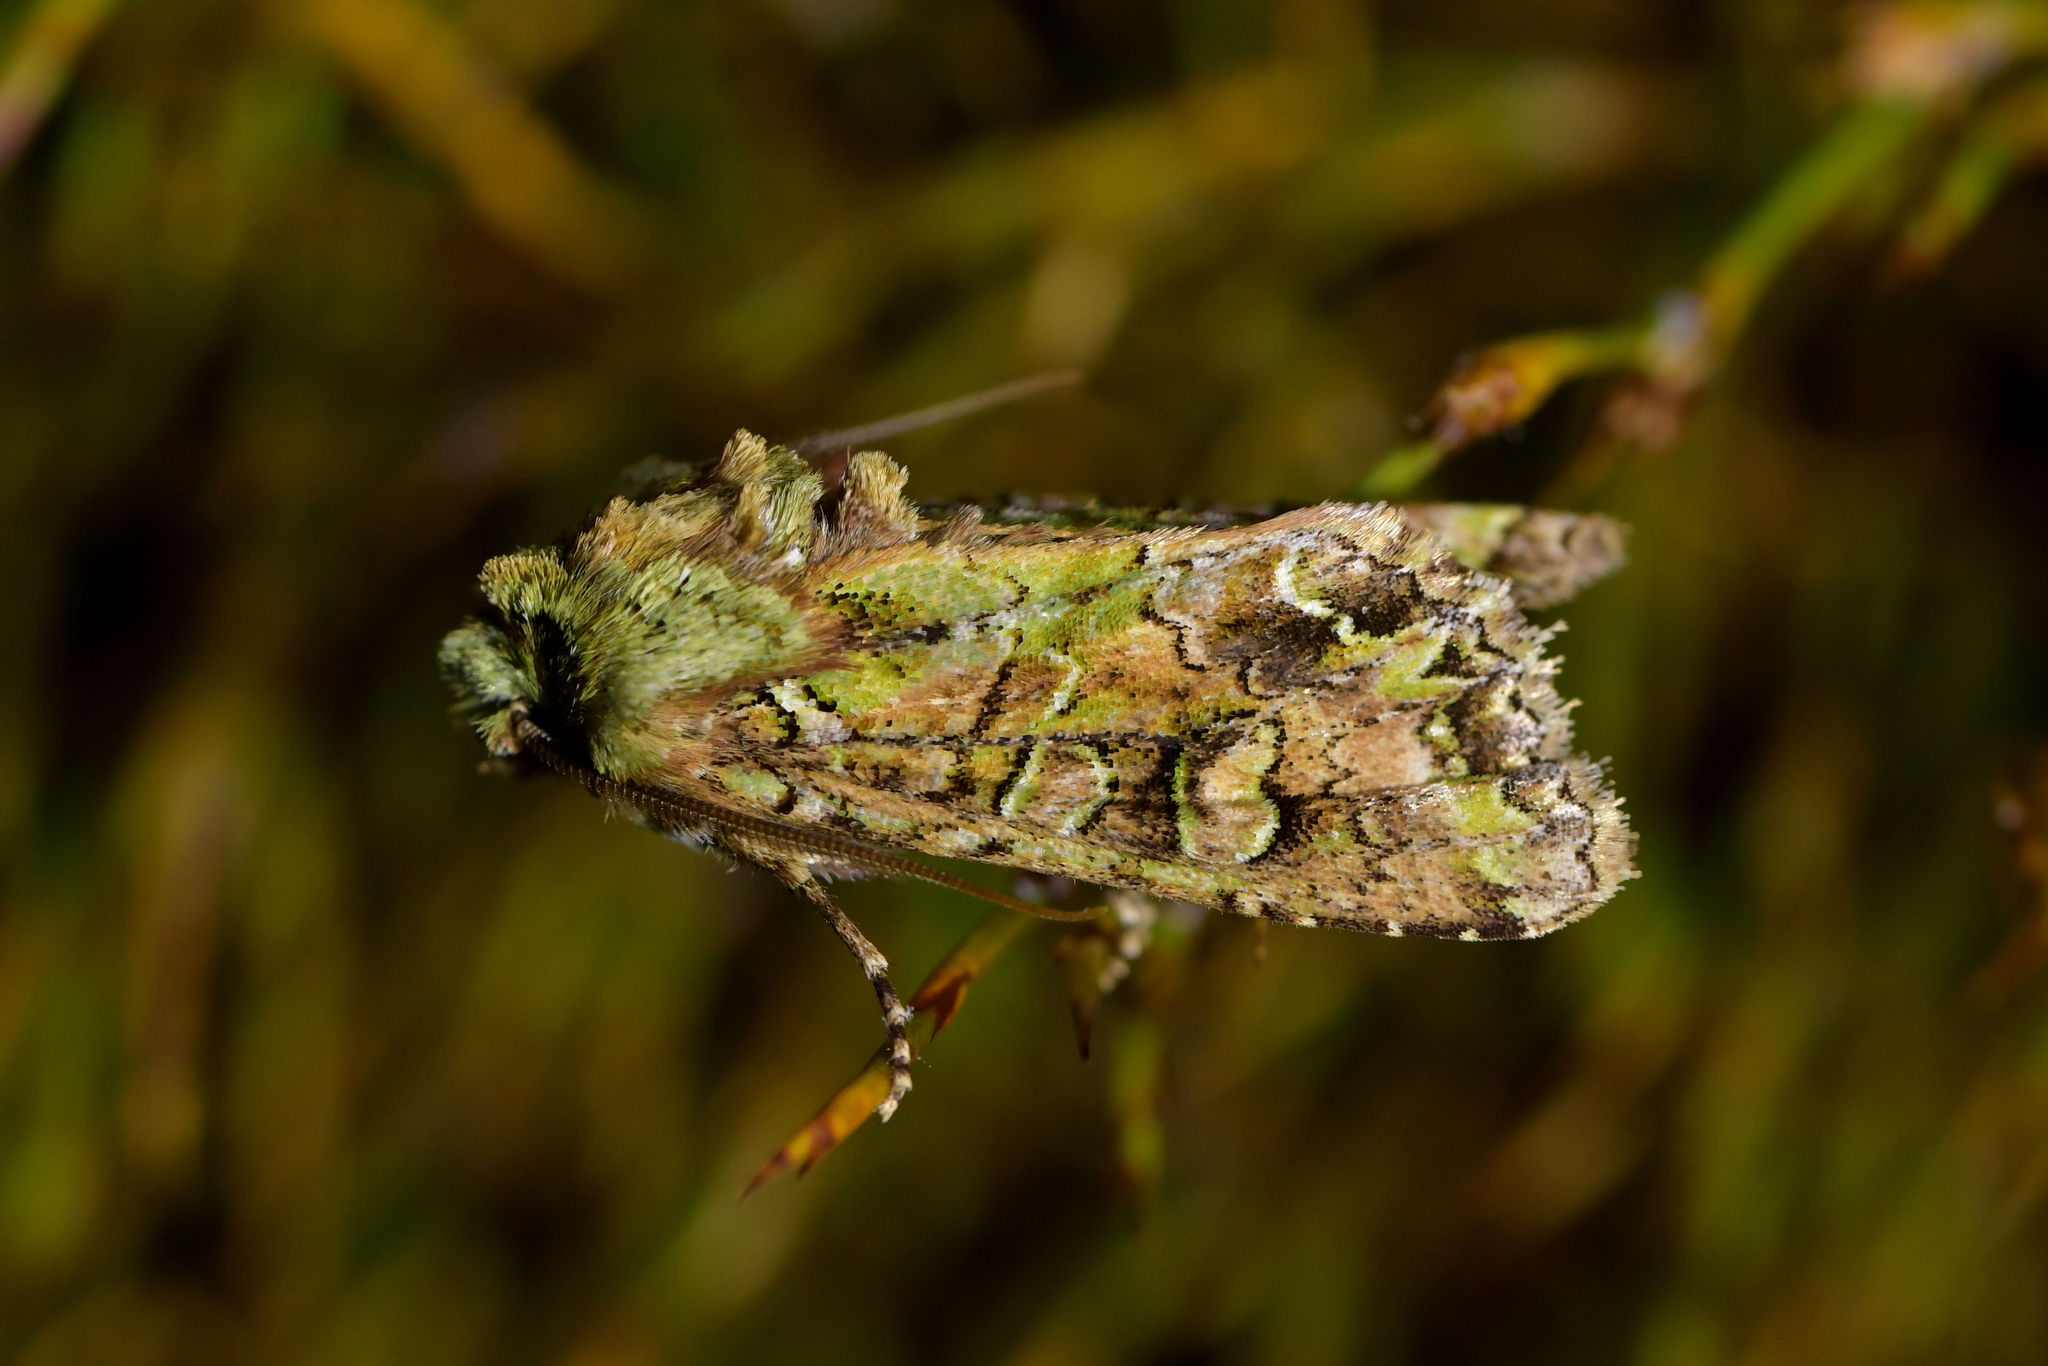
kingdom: Animalia
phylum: Arthropoda
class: Insecta
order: Lepidoptera
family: Noctuidae
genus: Ichneutica
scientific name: Ichneutica
